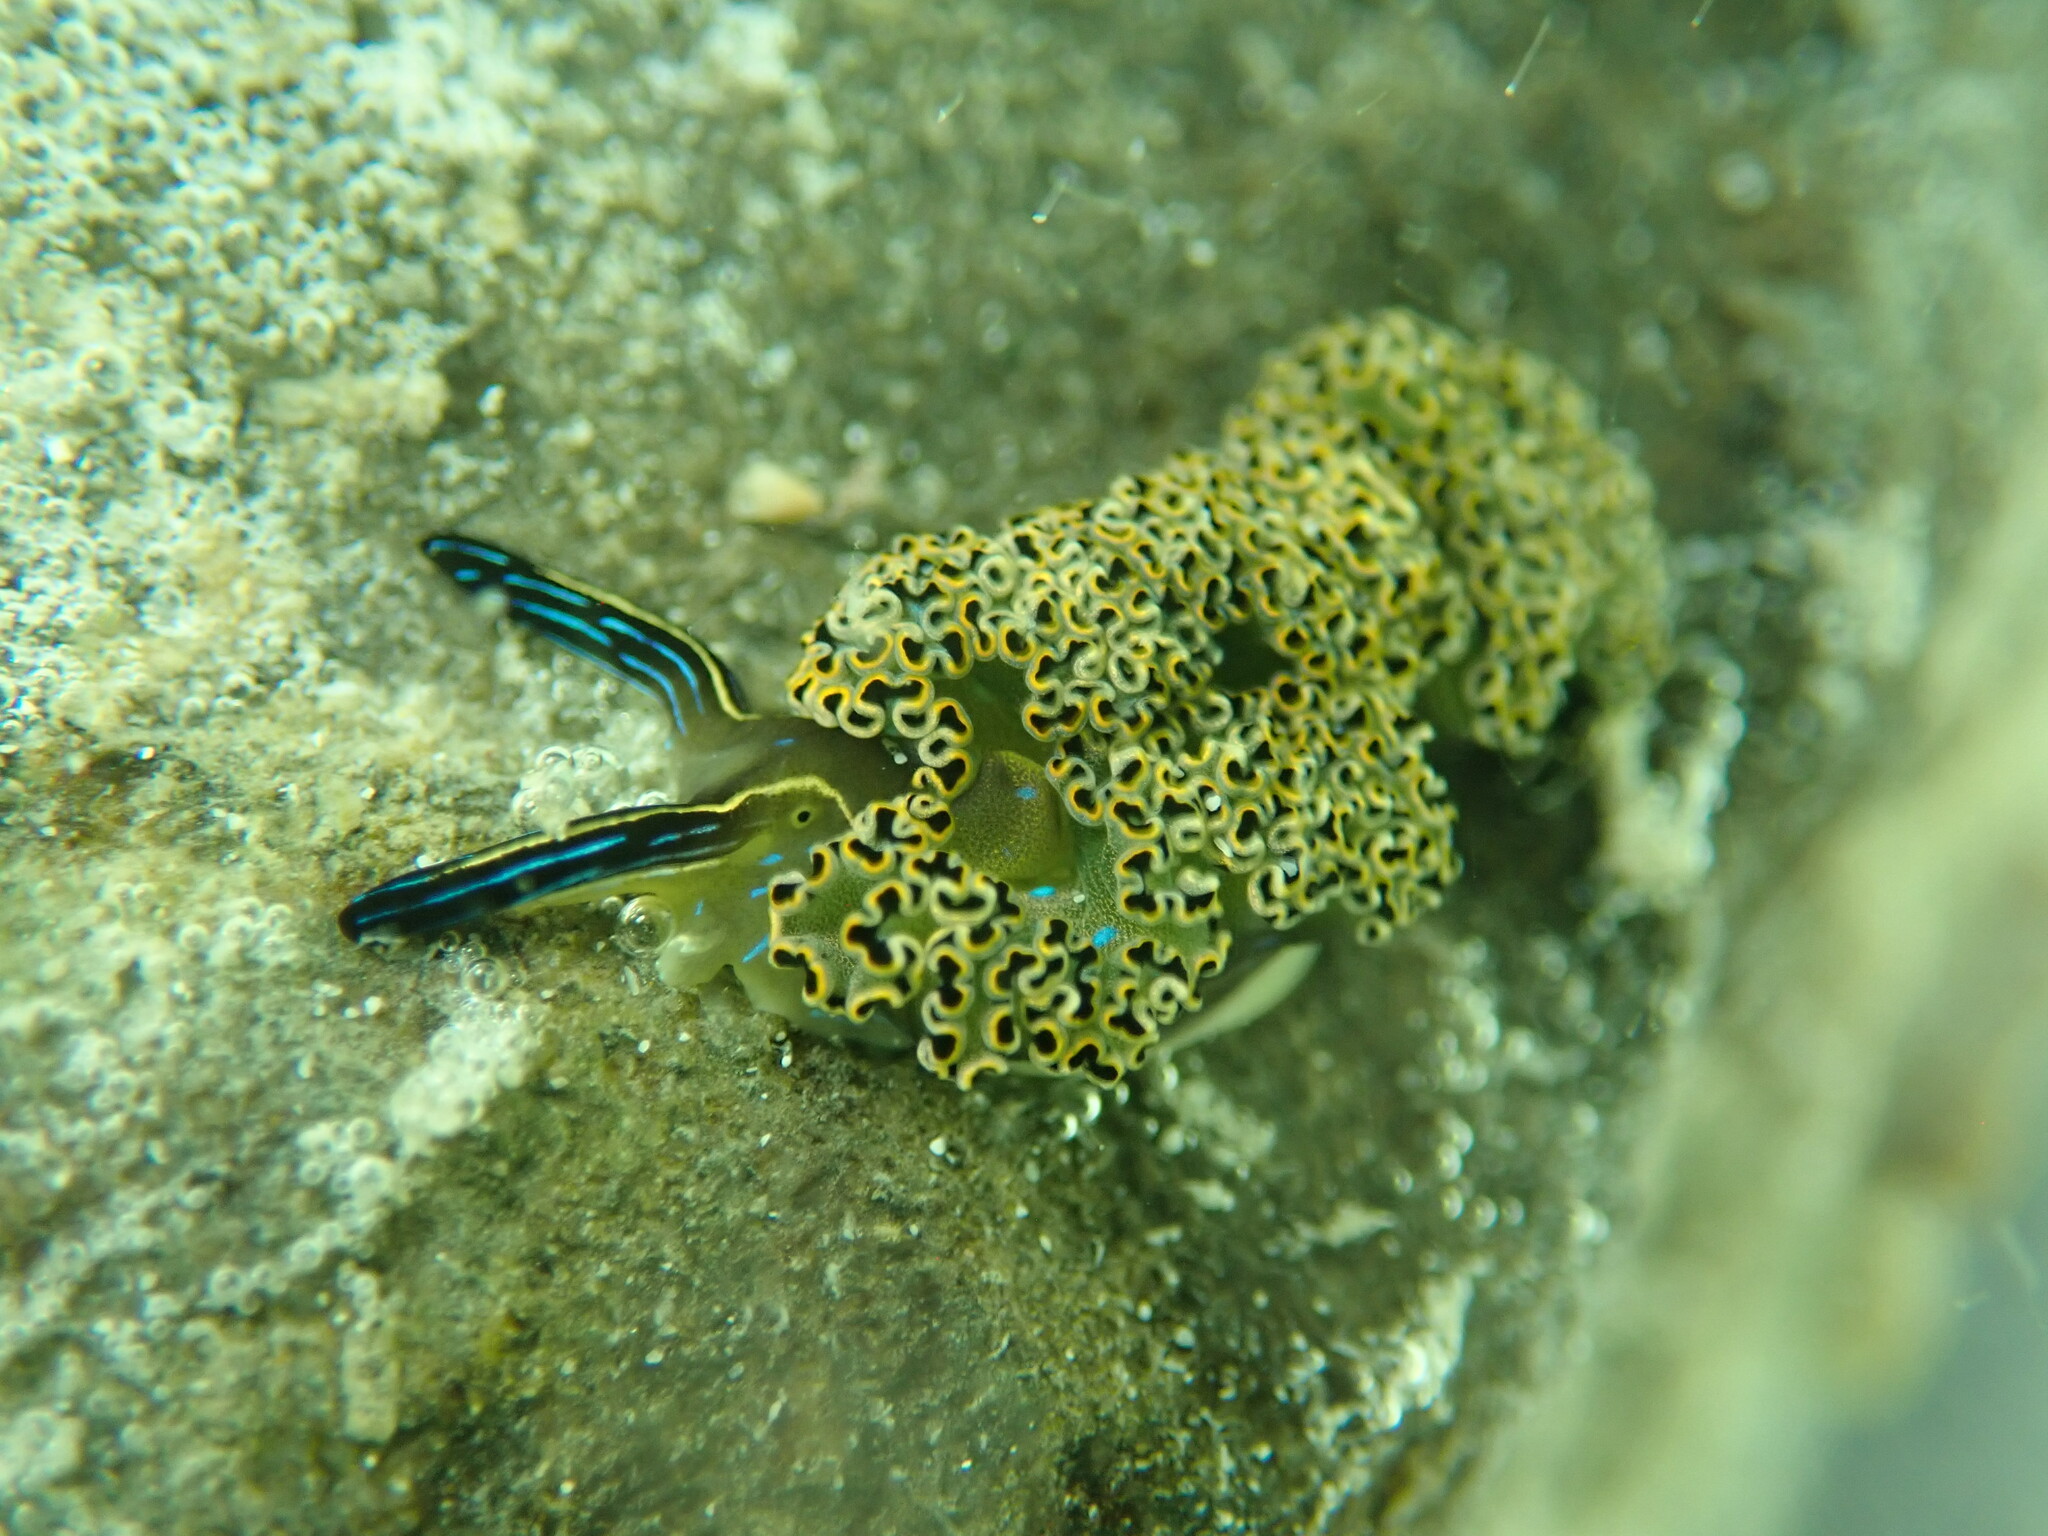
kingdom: Animalia
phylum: Mollusca
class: Gastropoda
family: Plakobranchidae
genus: Elysia
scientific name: Elysia diomedea
